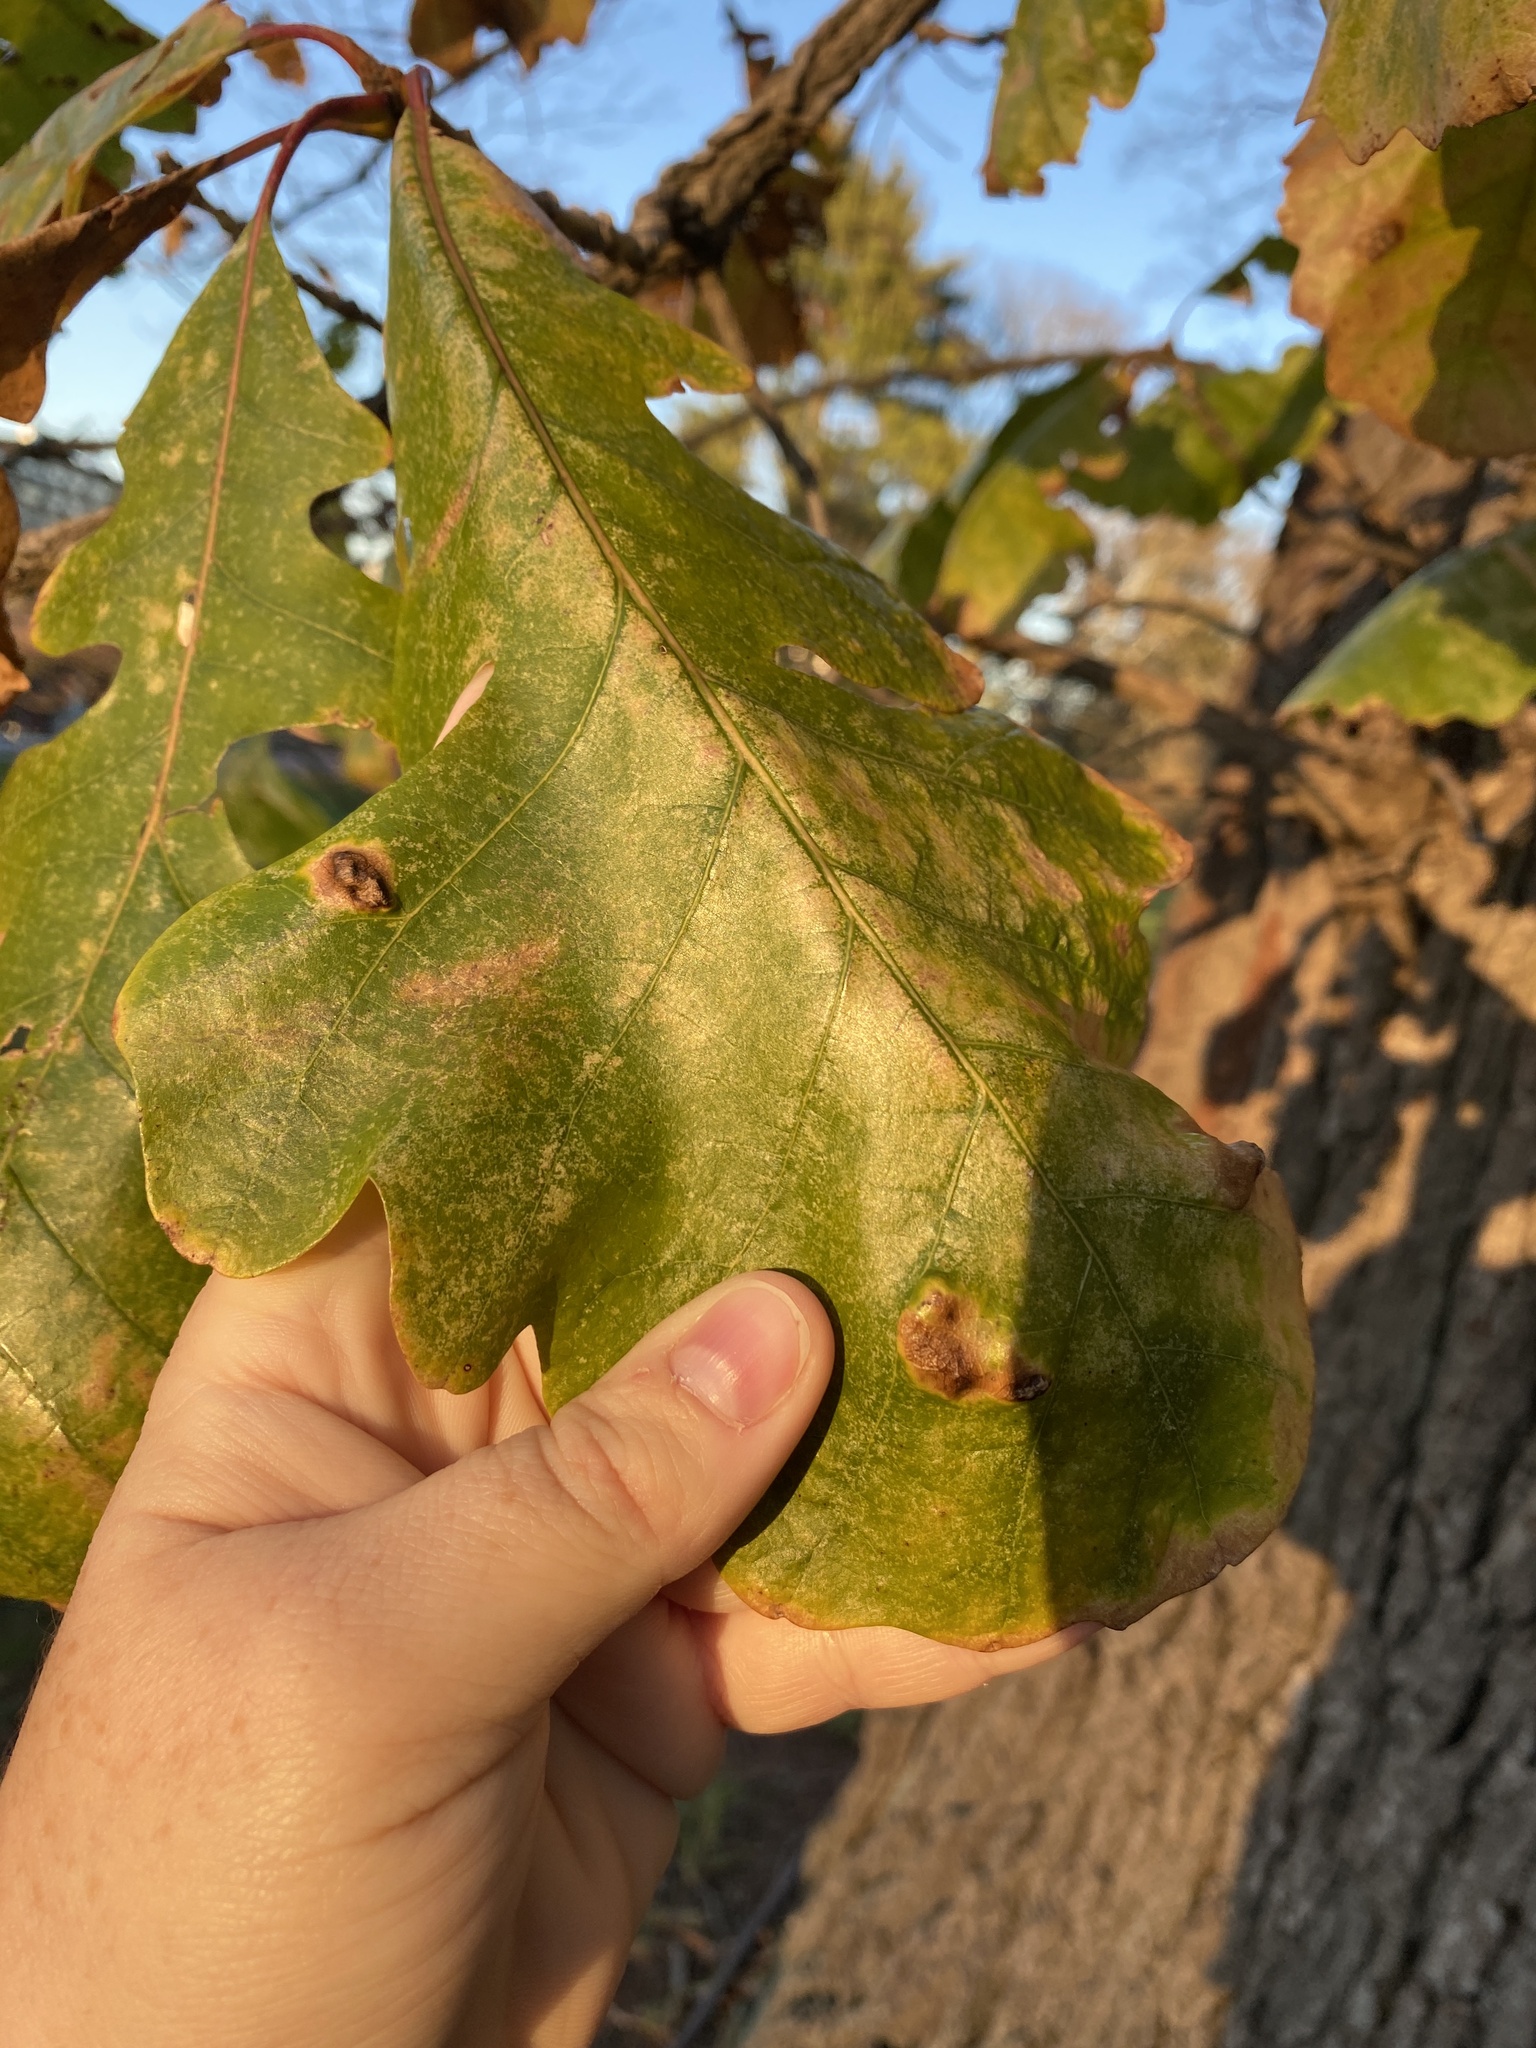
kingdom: Animalia
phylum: Arthropoda
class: Arachnida
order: Trombidiformes
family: Eriophyidae
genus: Aceria
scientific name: Aceria quercina
